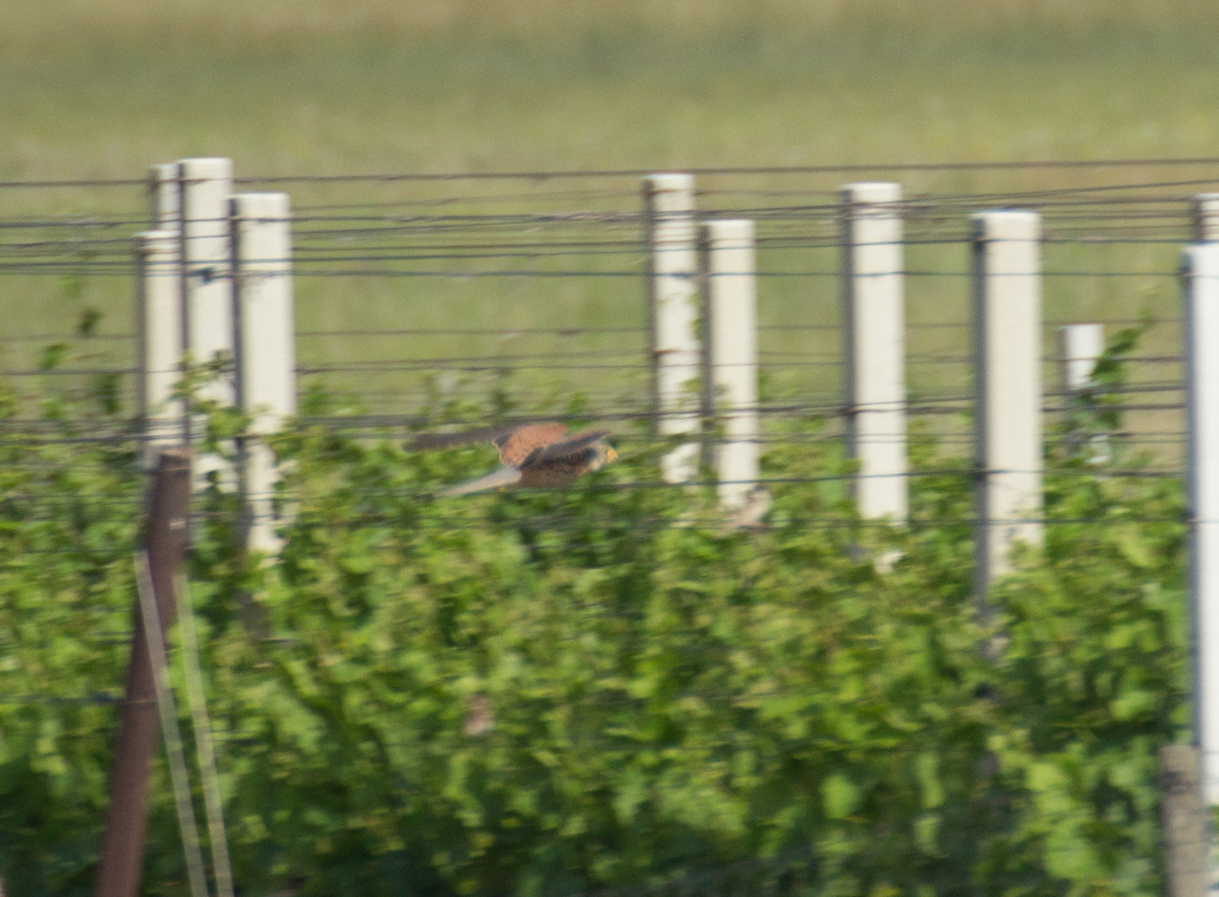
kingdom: Animalia
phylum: Chordata
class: Aves
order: Falconiformes
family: Falconidae
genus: Falco
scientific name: Falco tinnunculus
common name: Common kestrel
